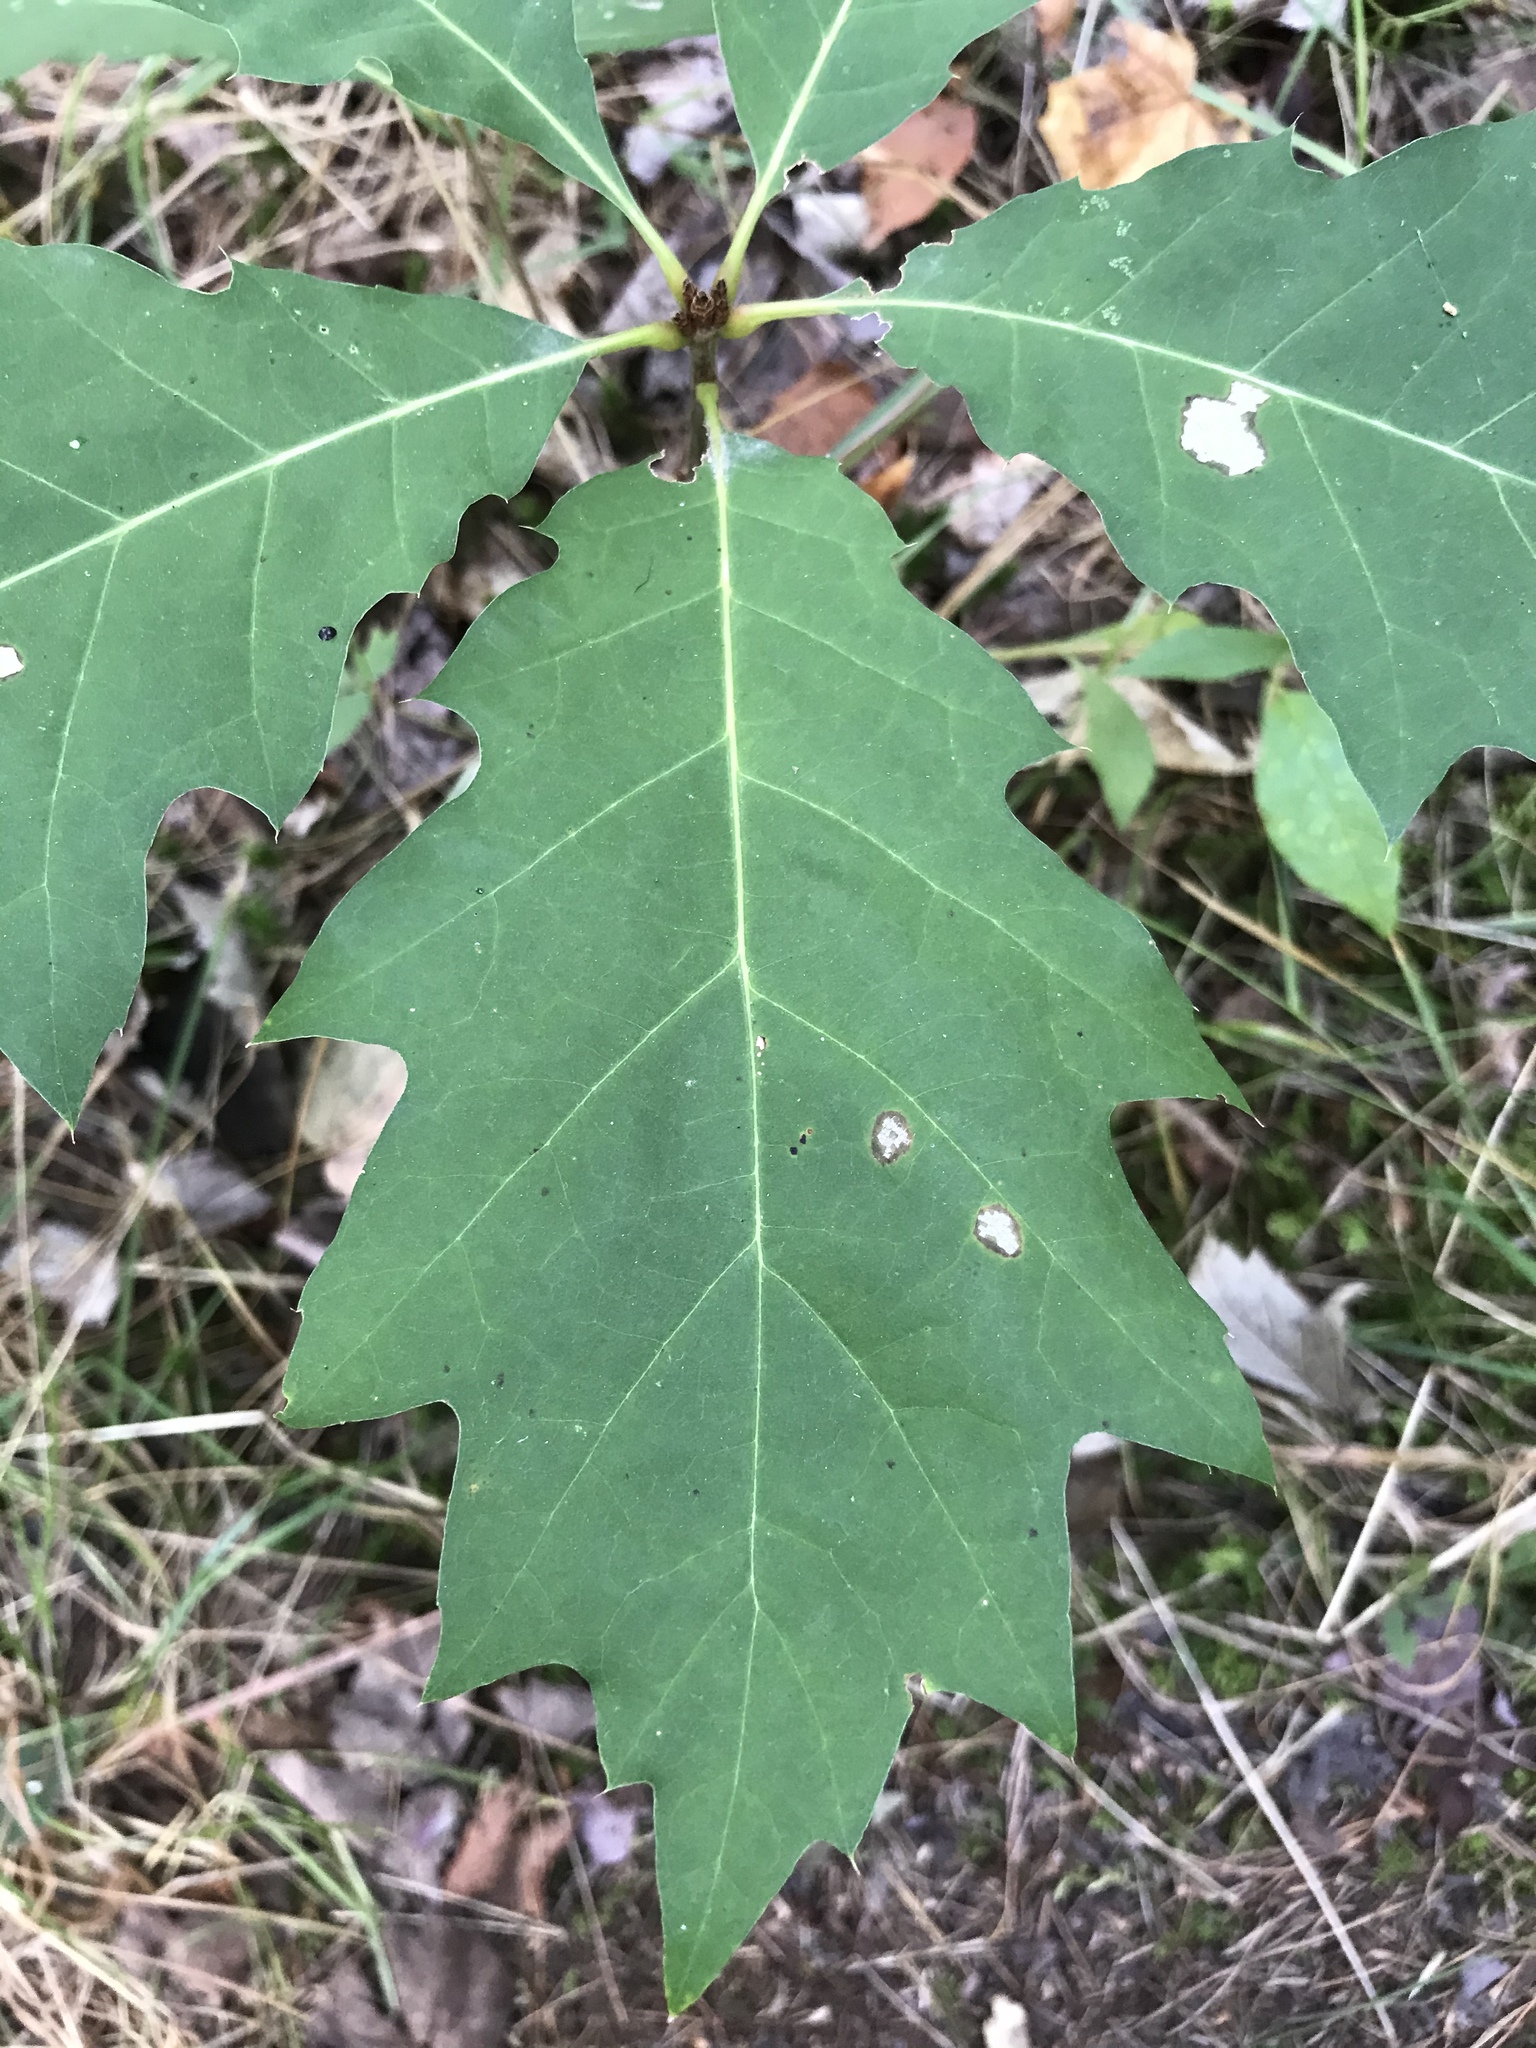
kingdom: Plantae
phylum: Tracheophyta
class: Magnoliopsida
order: Fagales
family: Fagaceae
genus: Quercus
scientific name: Quercus rubra
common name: Red oak
